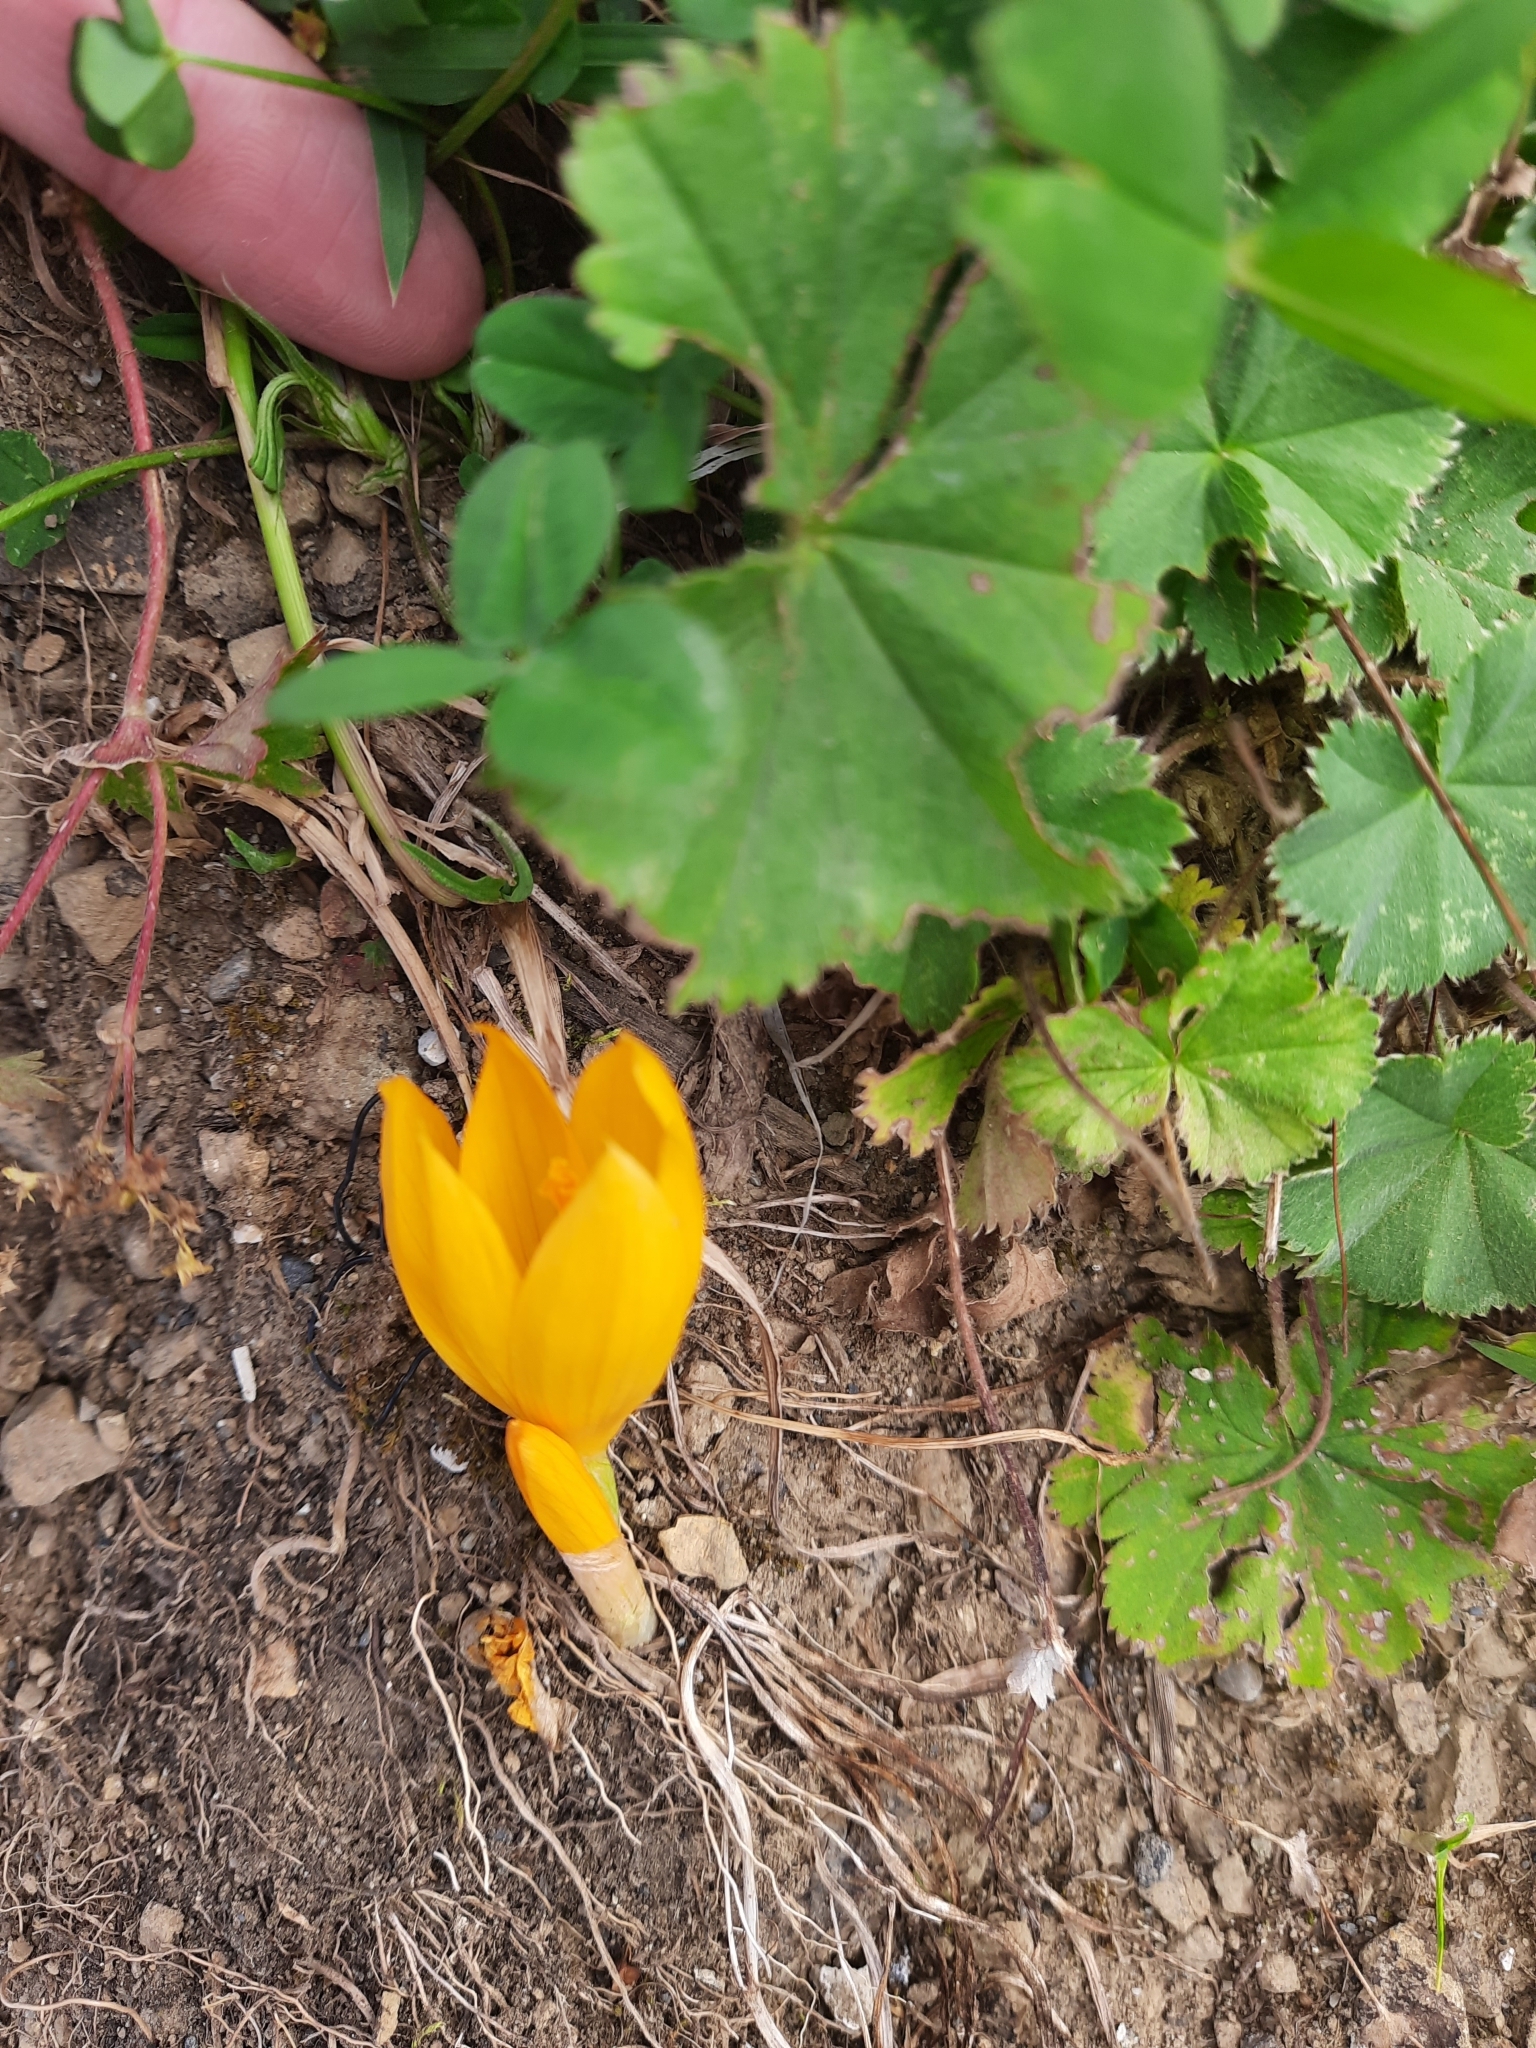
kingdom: Plantae
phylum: Tracheophyta
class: Liliopsida
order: Asparagales
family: Iridaceae
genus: Crocus
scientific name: Crocus scharojanii
